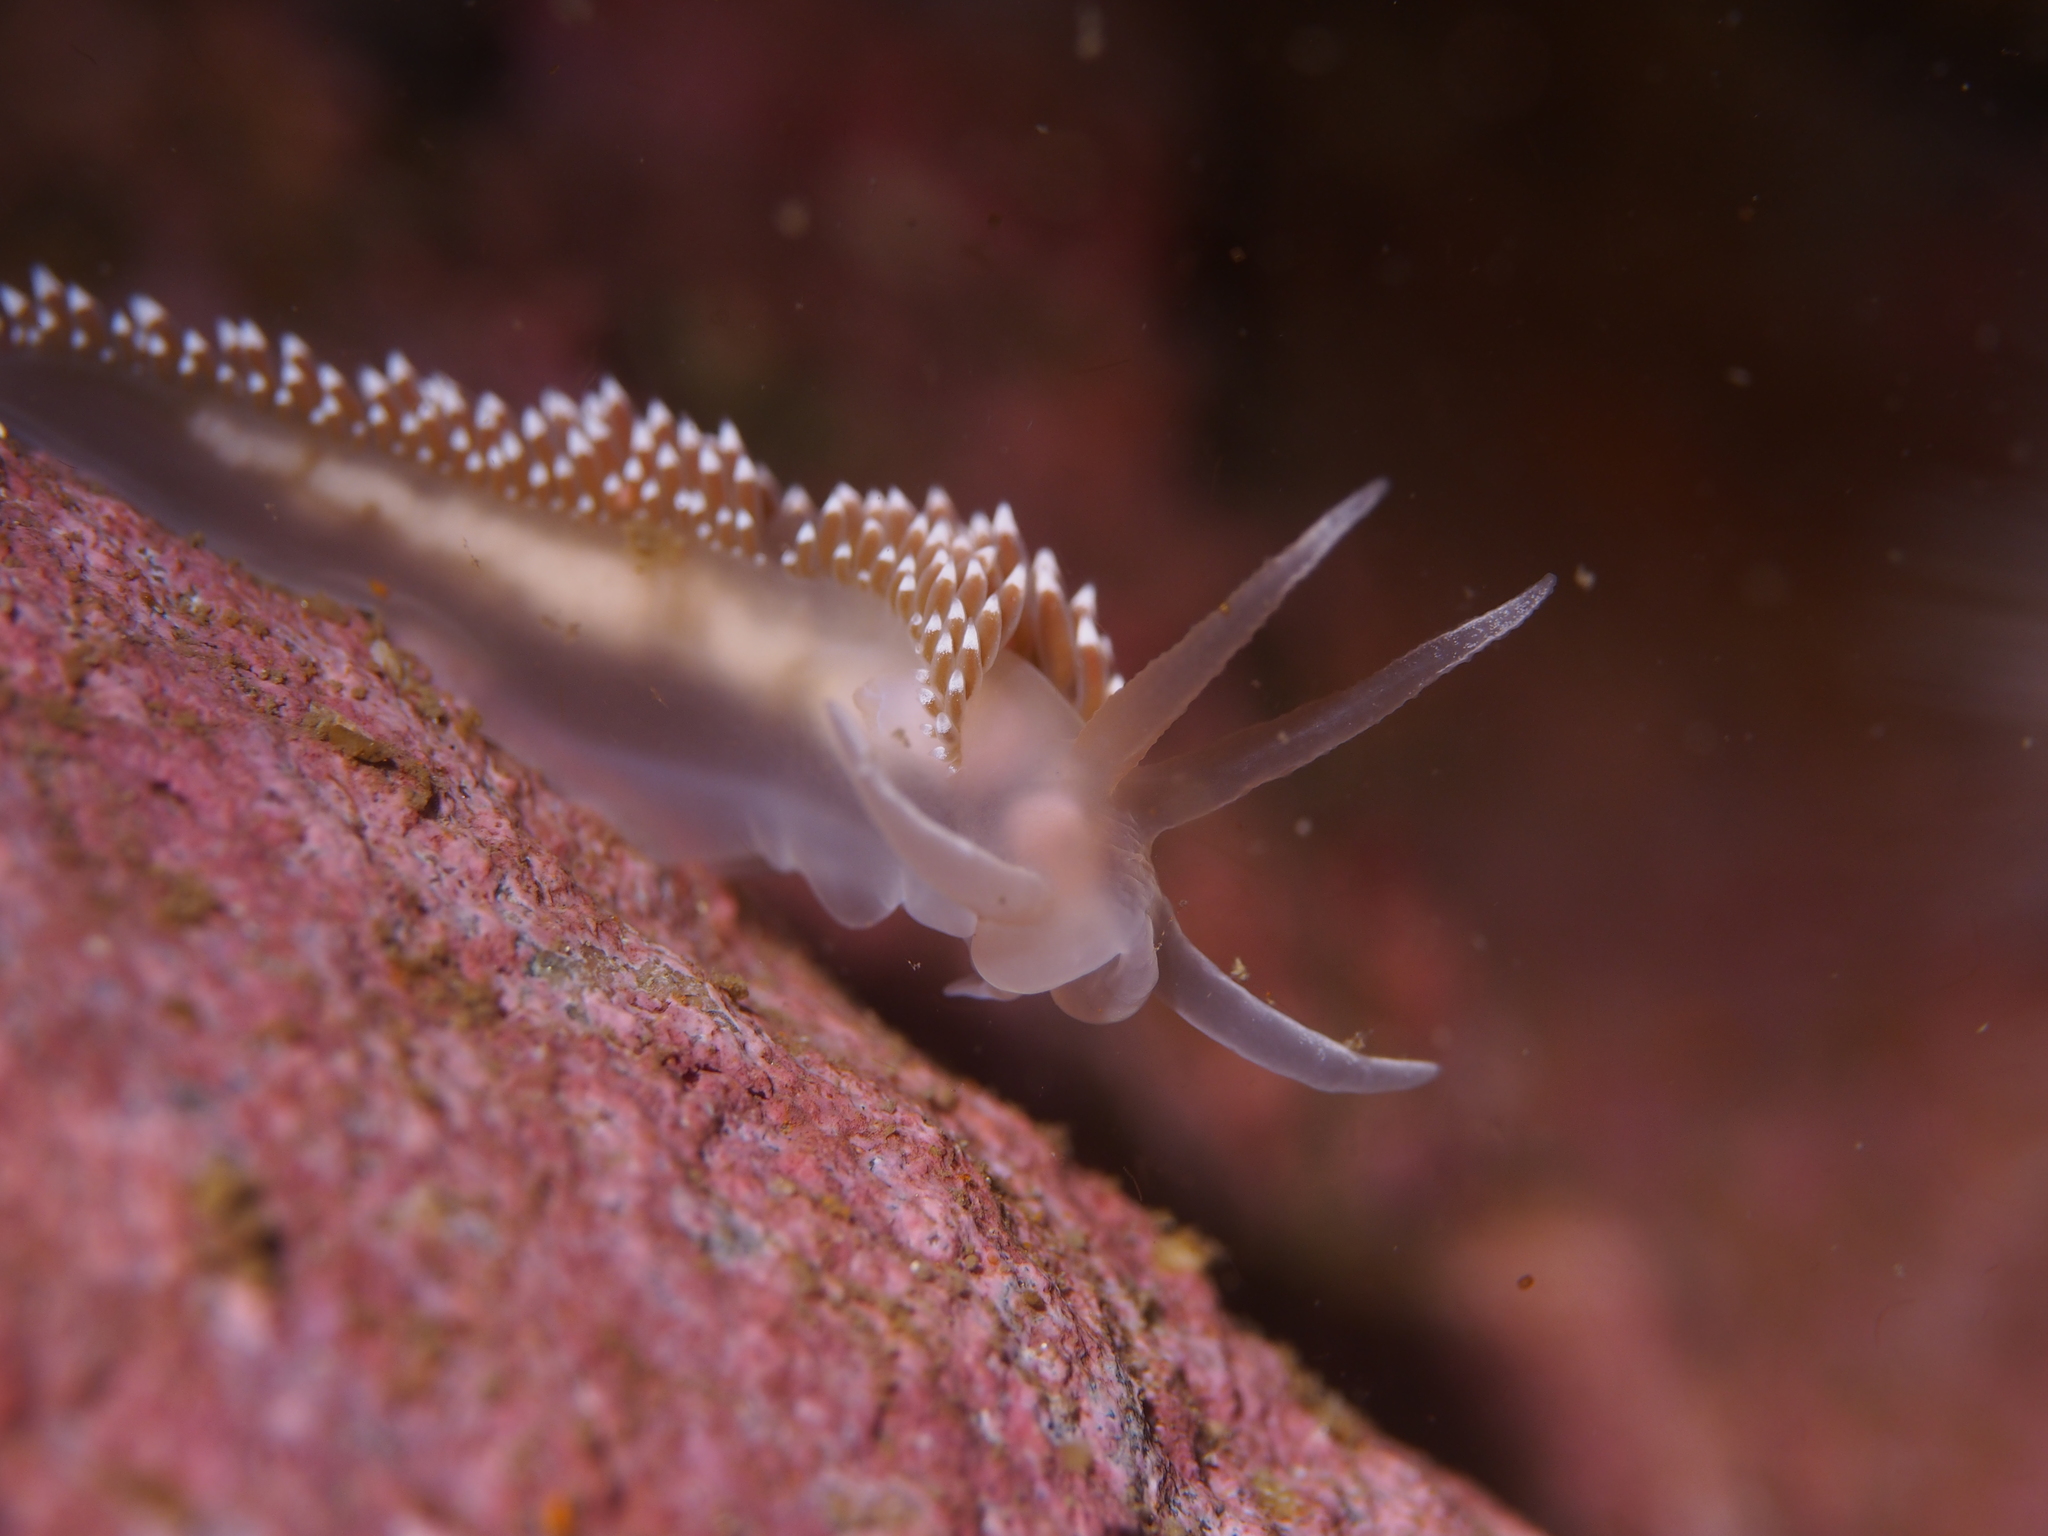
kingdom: Animalia
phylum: Mollusca
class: Gastropoda
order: Nudibranchia
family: Coryphellidae
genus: Coryphella
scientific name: Coryphella verrucosa
